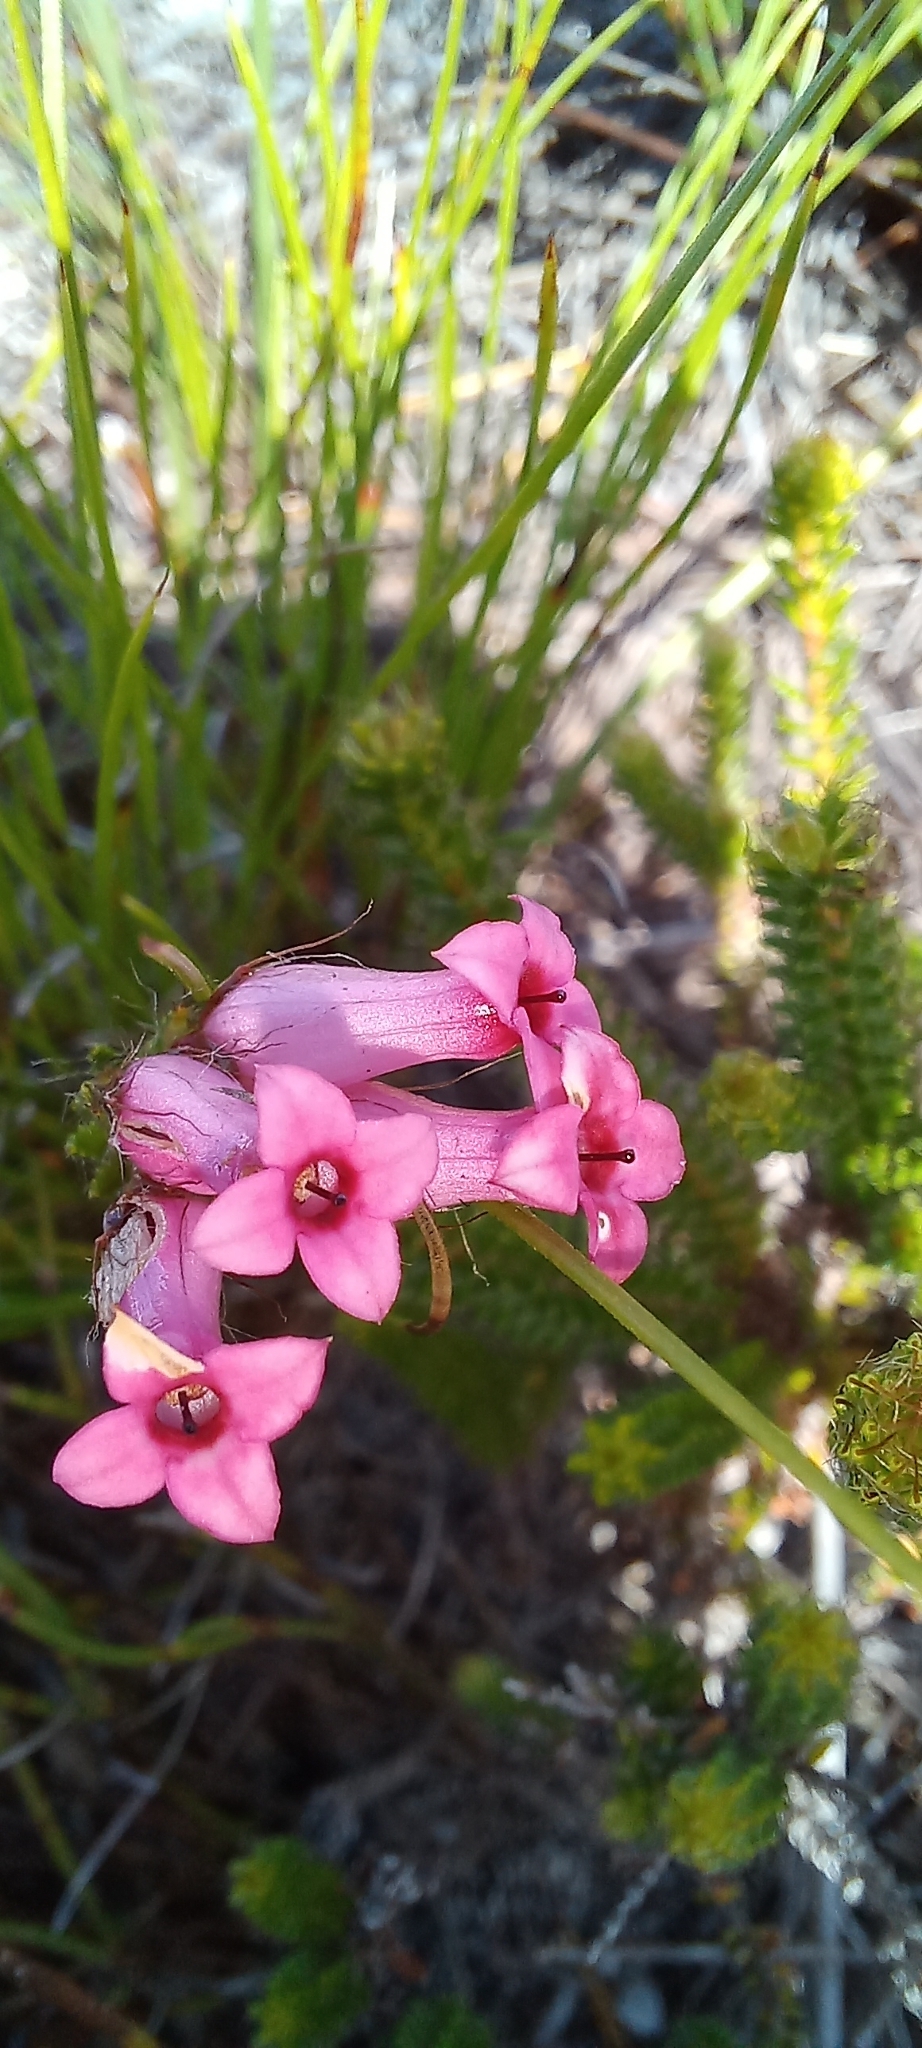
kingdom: Plantae
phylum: Tracheophyta
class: Magnoliopsida
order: Ericales
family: Ericaceae
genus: Erica
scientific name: Erica gysbertii
